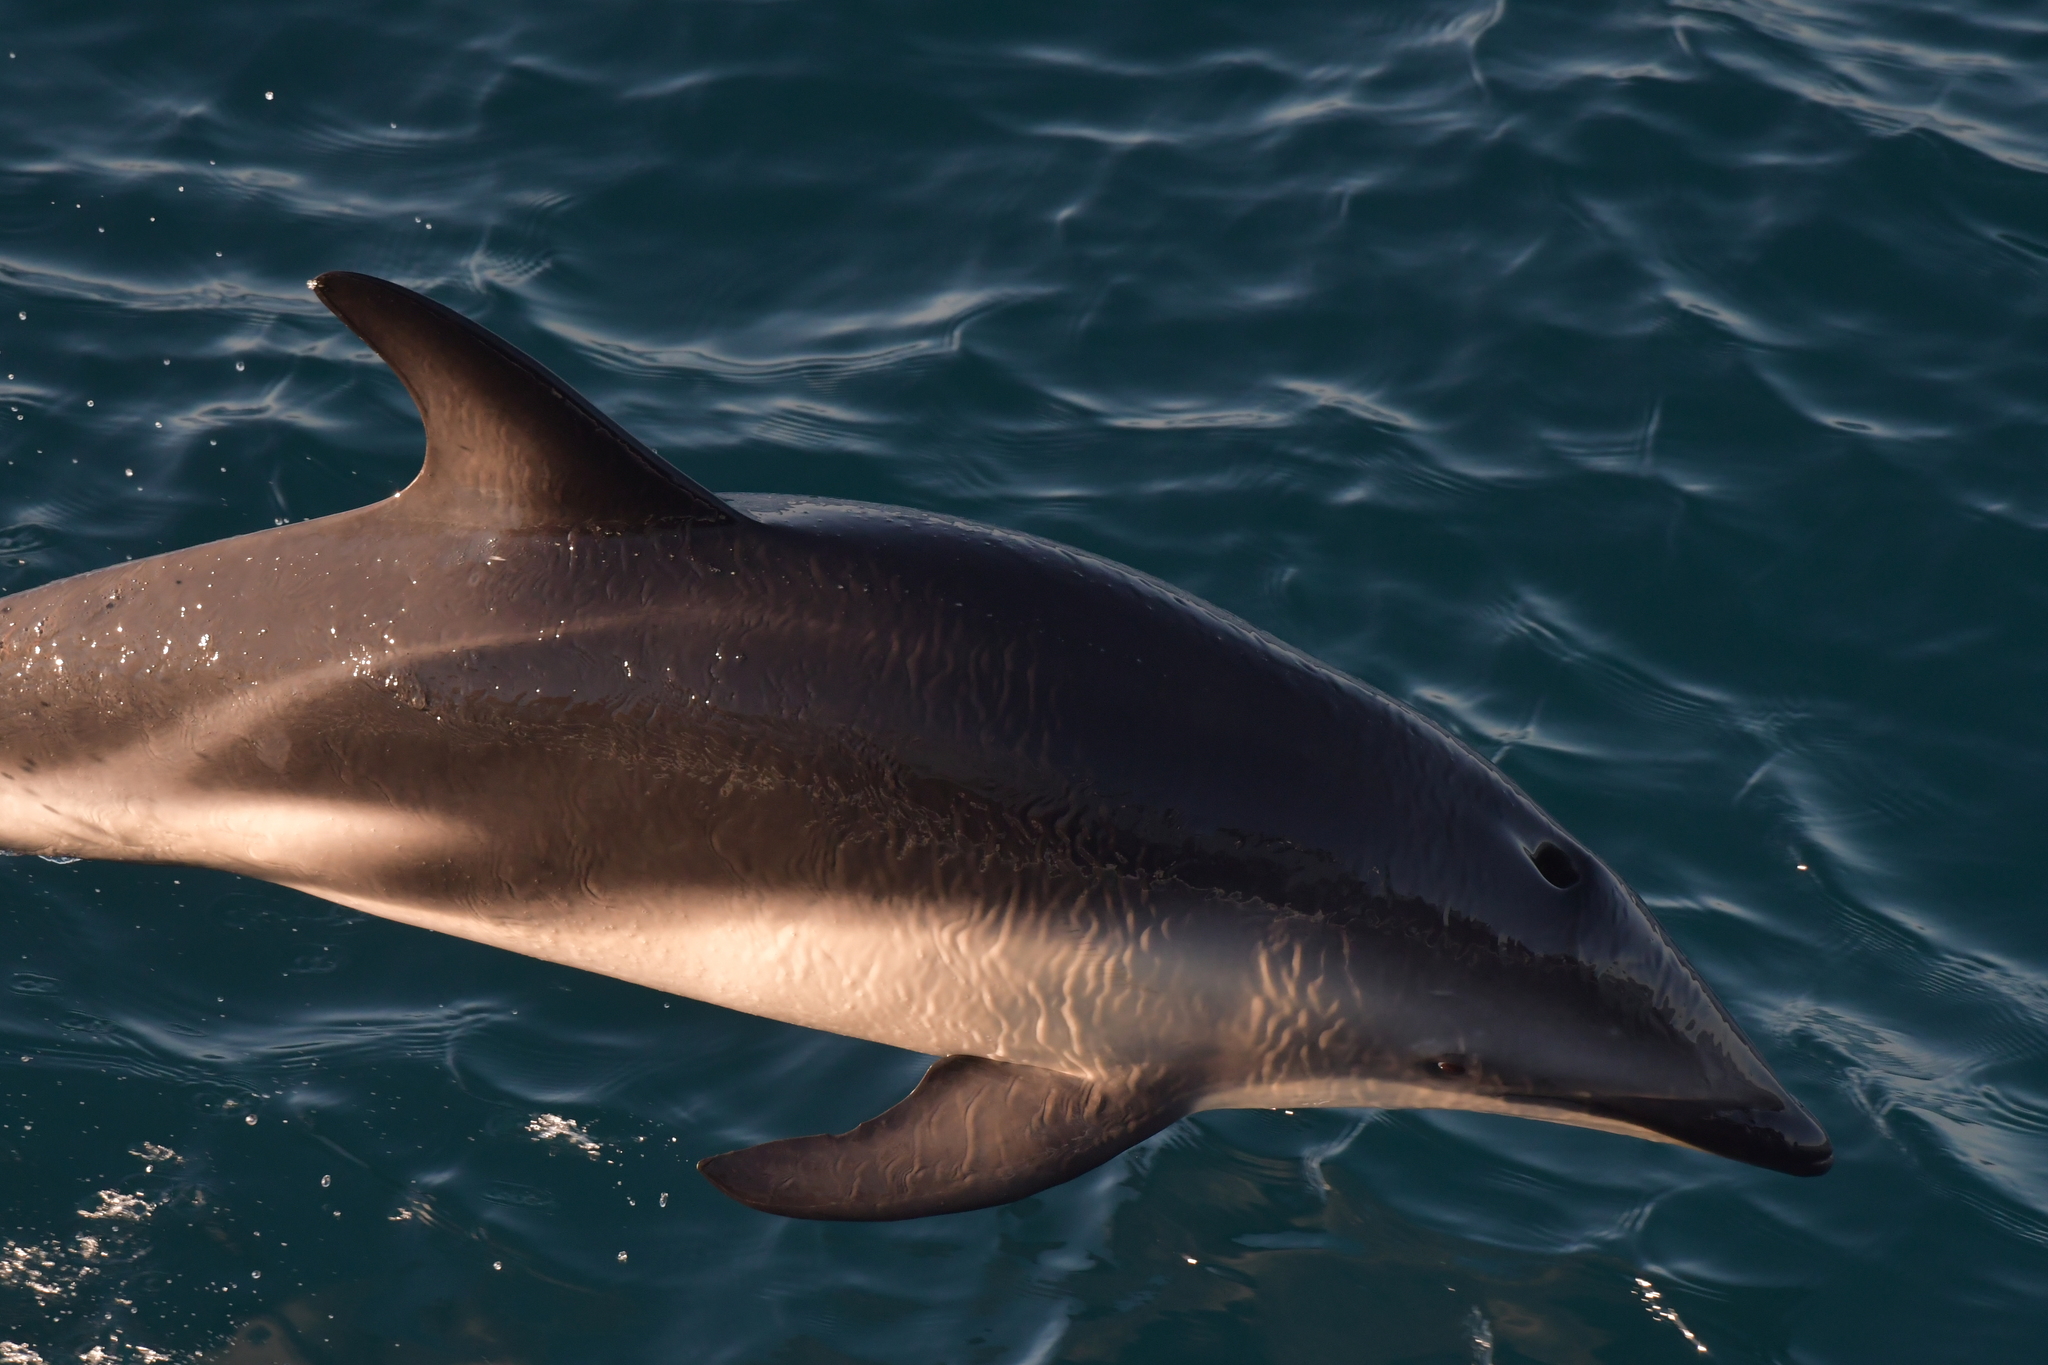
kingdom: Animalia
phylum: Chordata
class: Mammalia
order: Cetacea
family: Delphinidae
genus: Lagenorhynchus
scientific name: Lagenorhynchus obscurus
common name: Dusky dolphin
